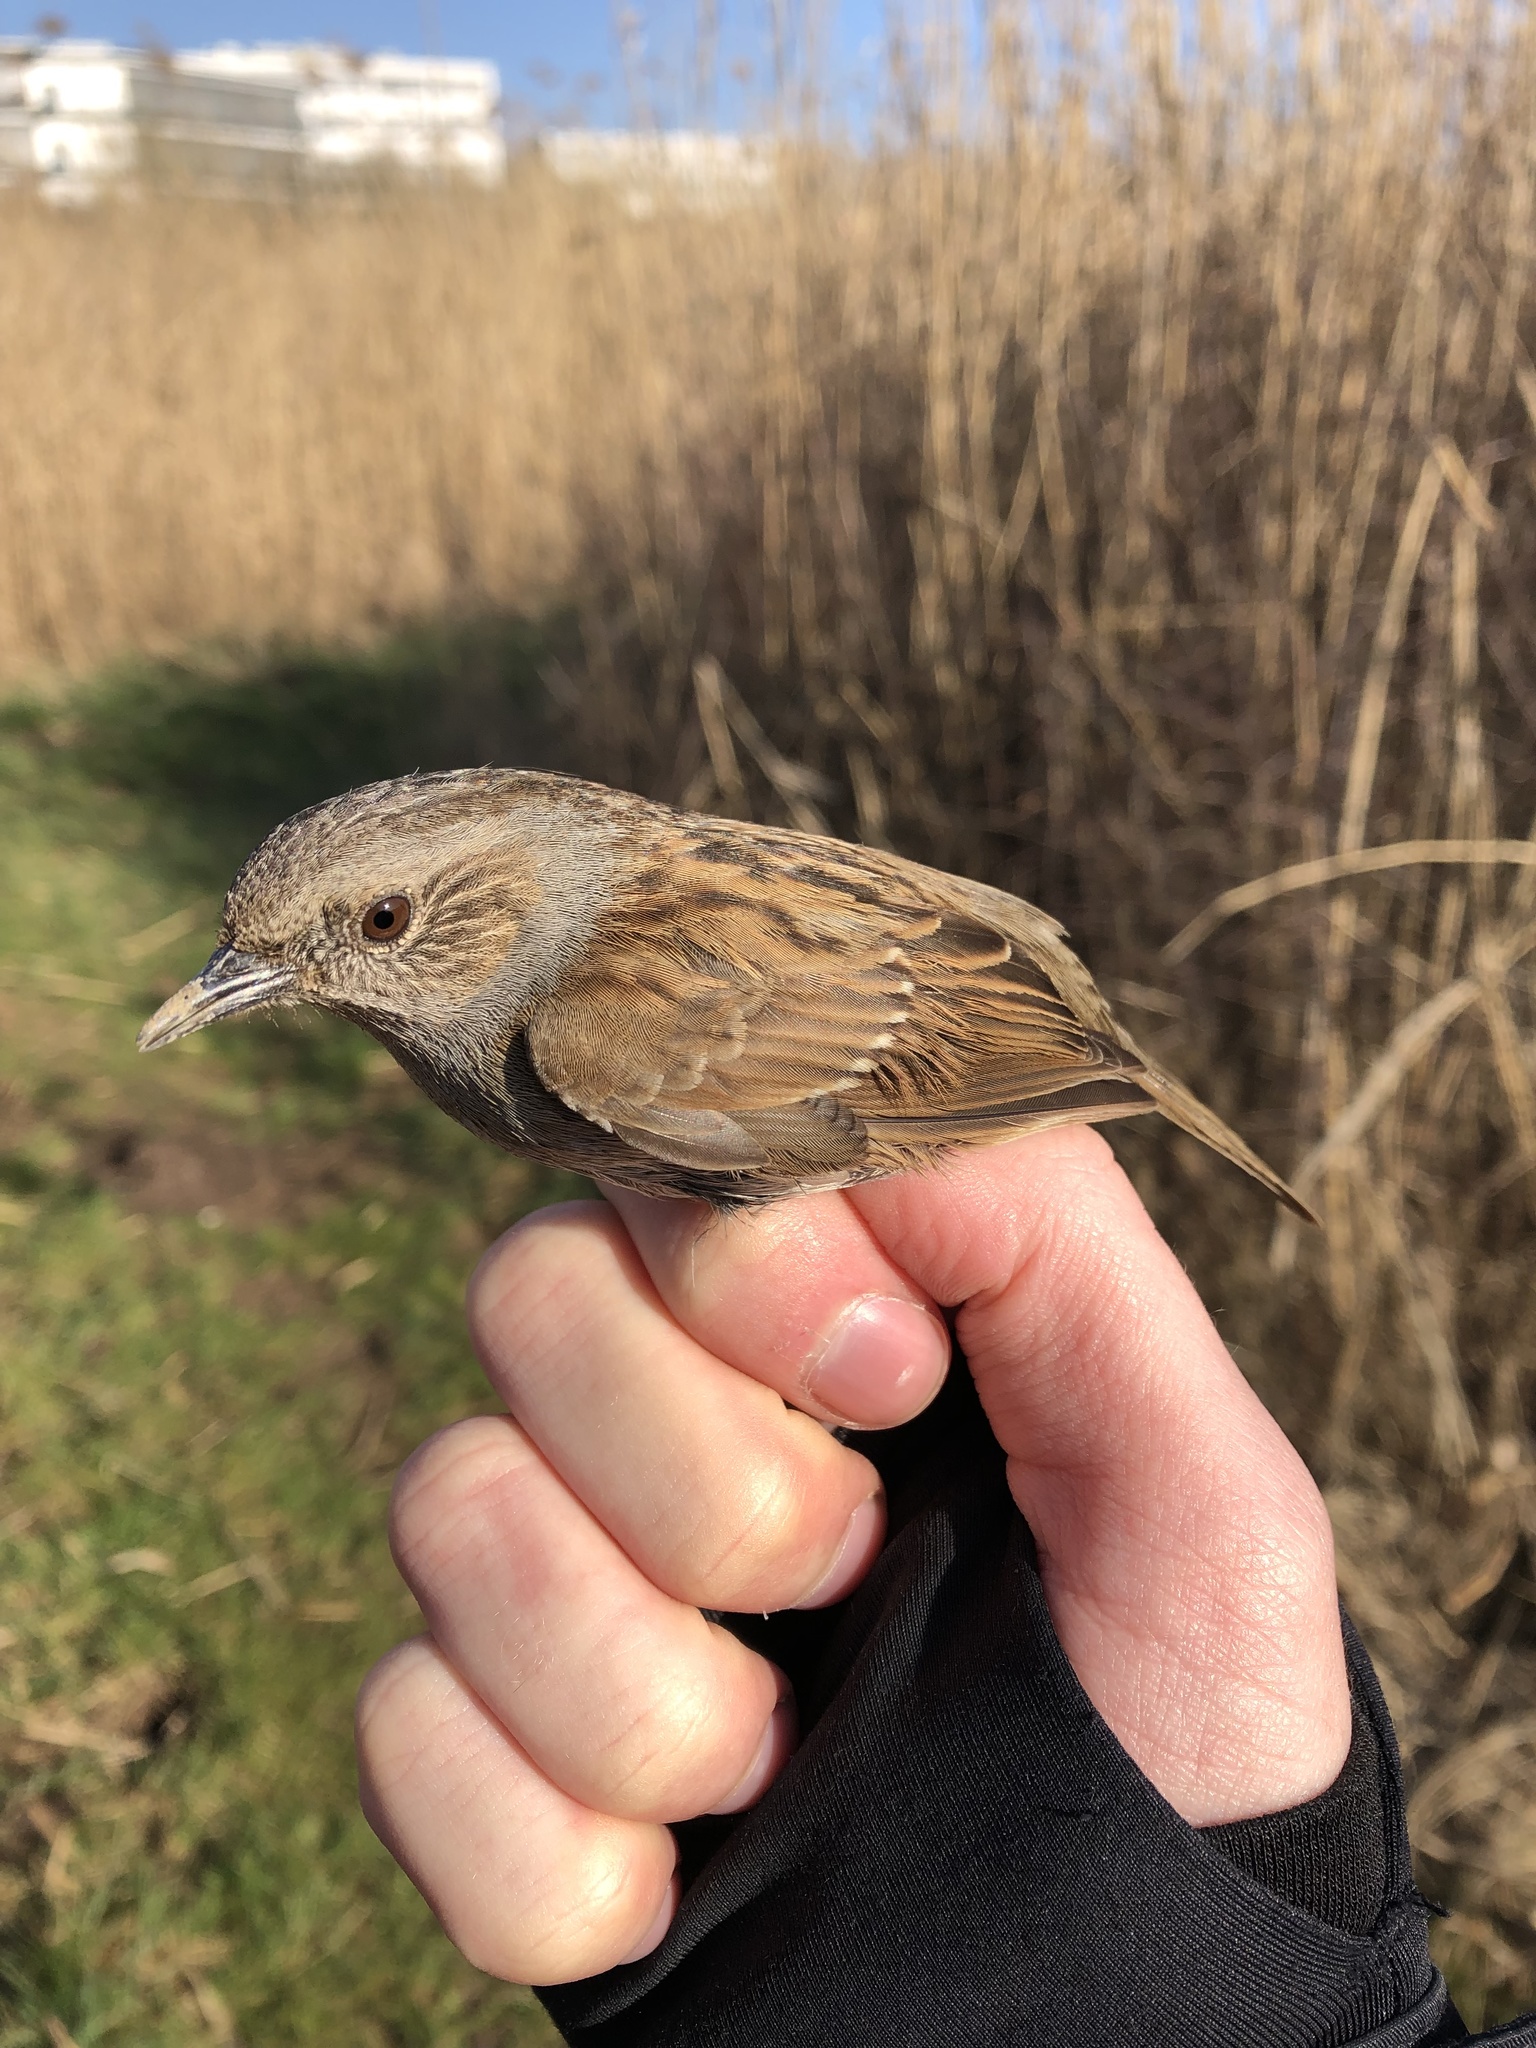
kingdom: Animalia
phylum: Chordata
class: Aves
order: Passeriformes
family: Prunellidae
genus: Prunella
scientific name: Prunella modularis
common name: Dunnock
